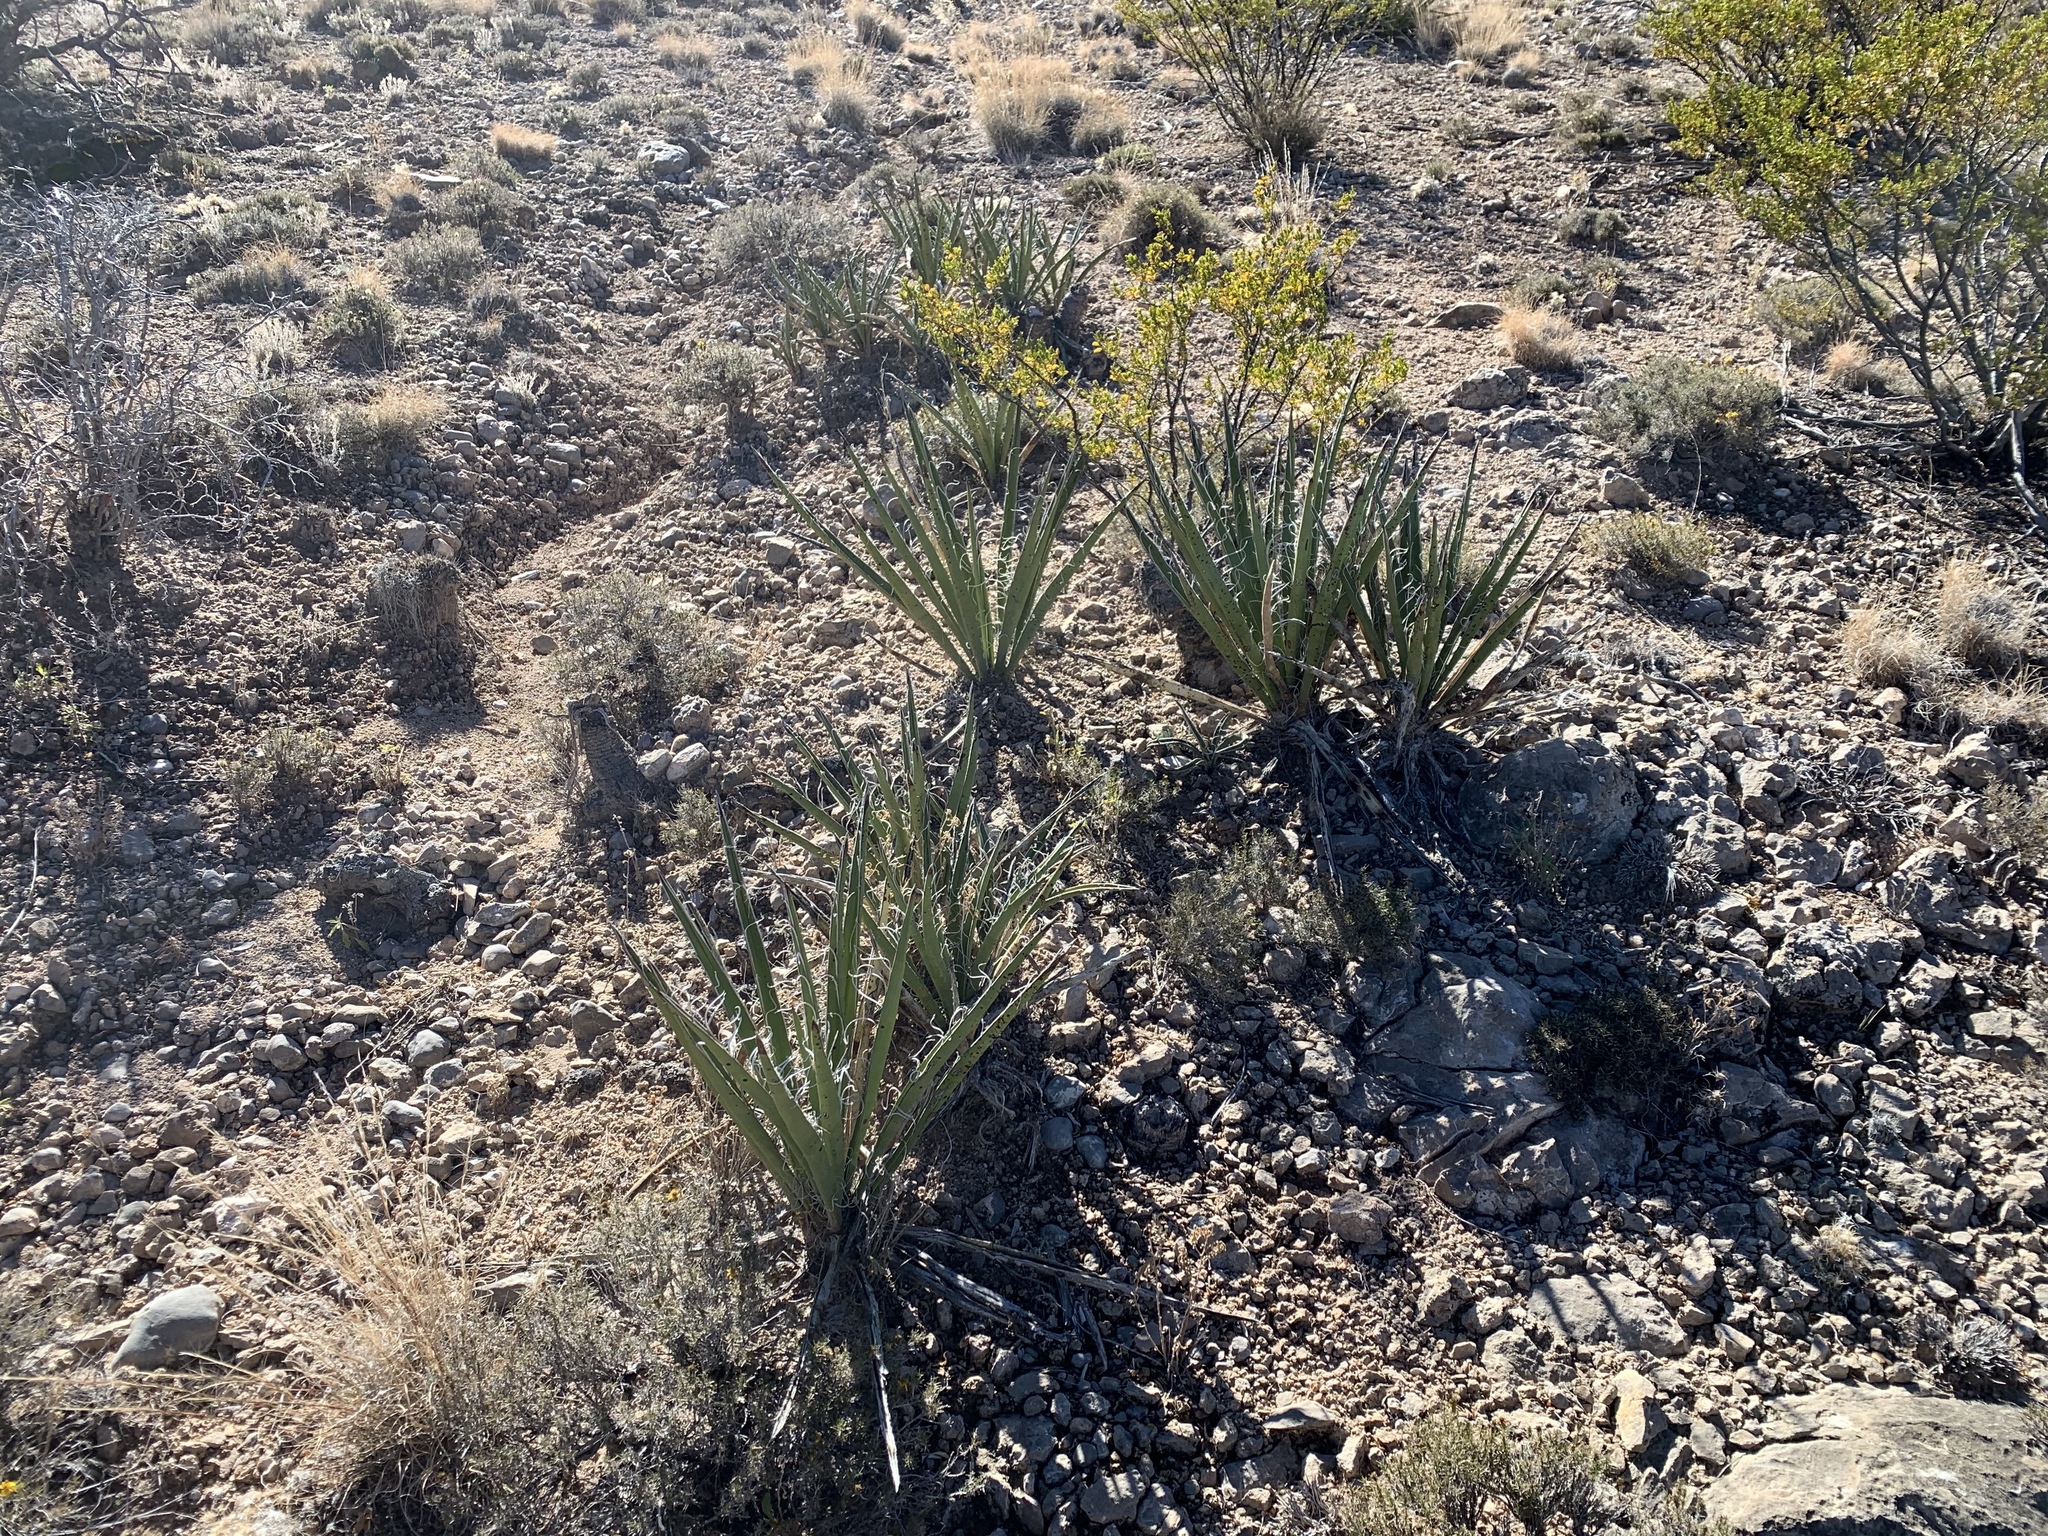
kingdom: Plantae
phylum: Tracheophyta
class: Liliopsida
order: Asparagales
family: Asparagaceae
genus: Yucca
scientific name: Yucca baccata
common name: Banana yucca
